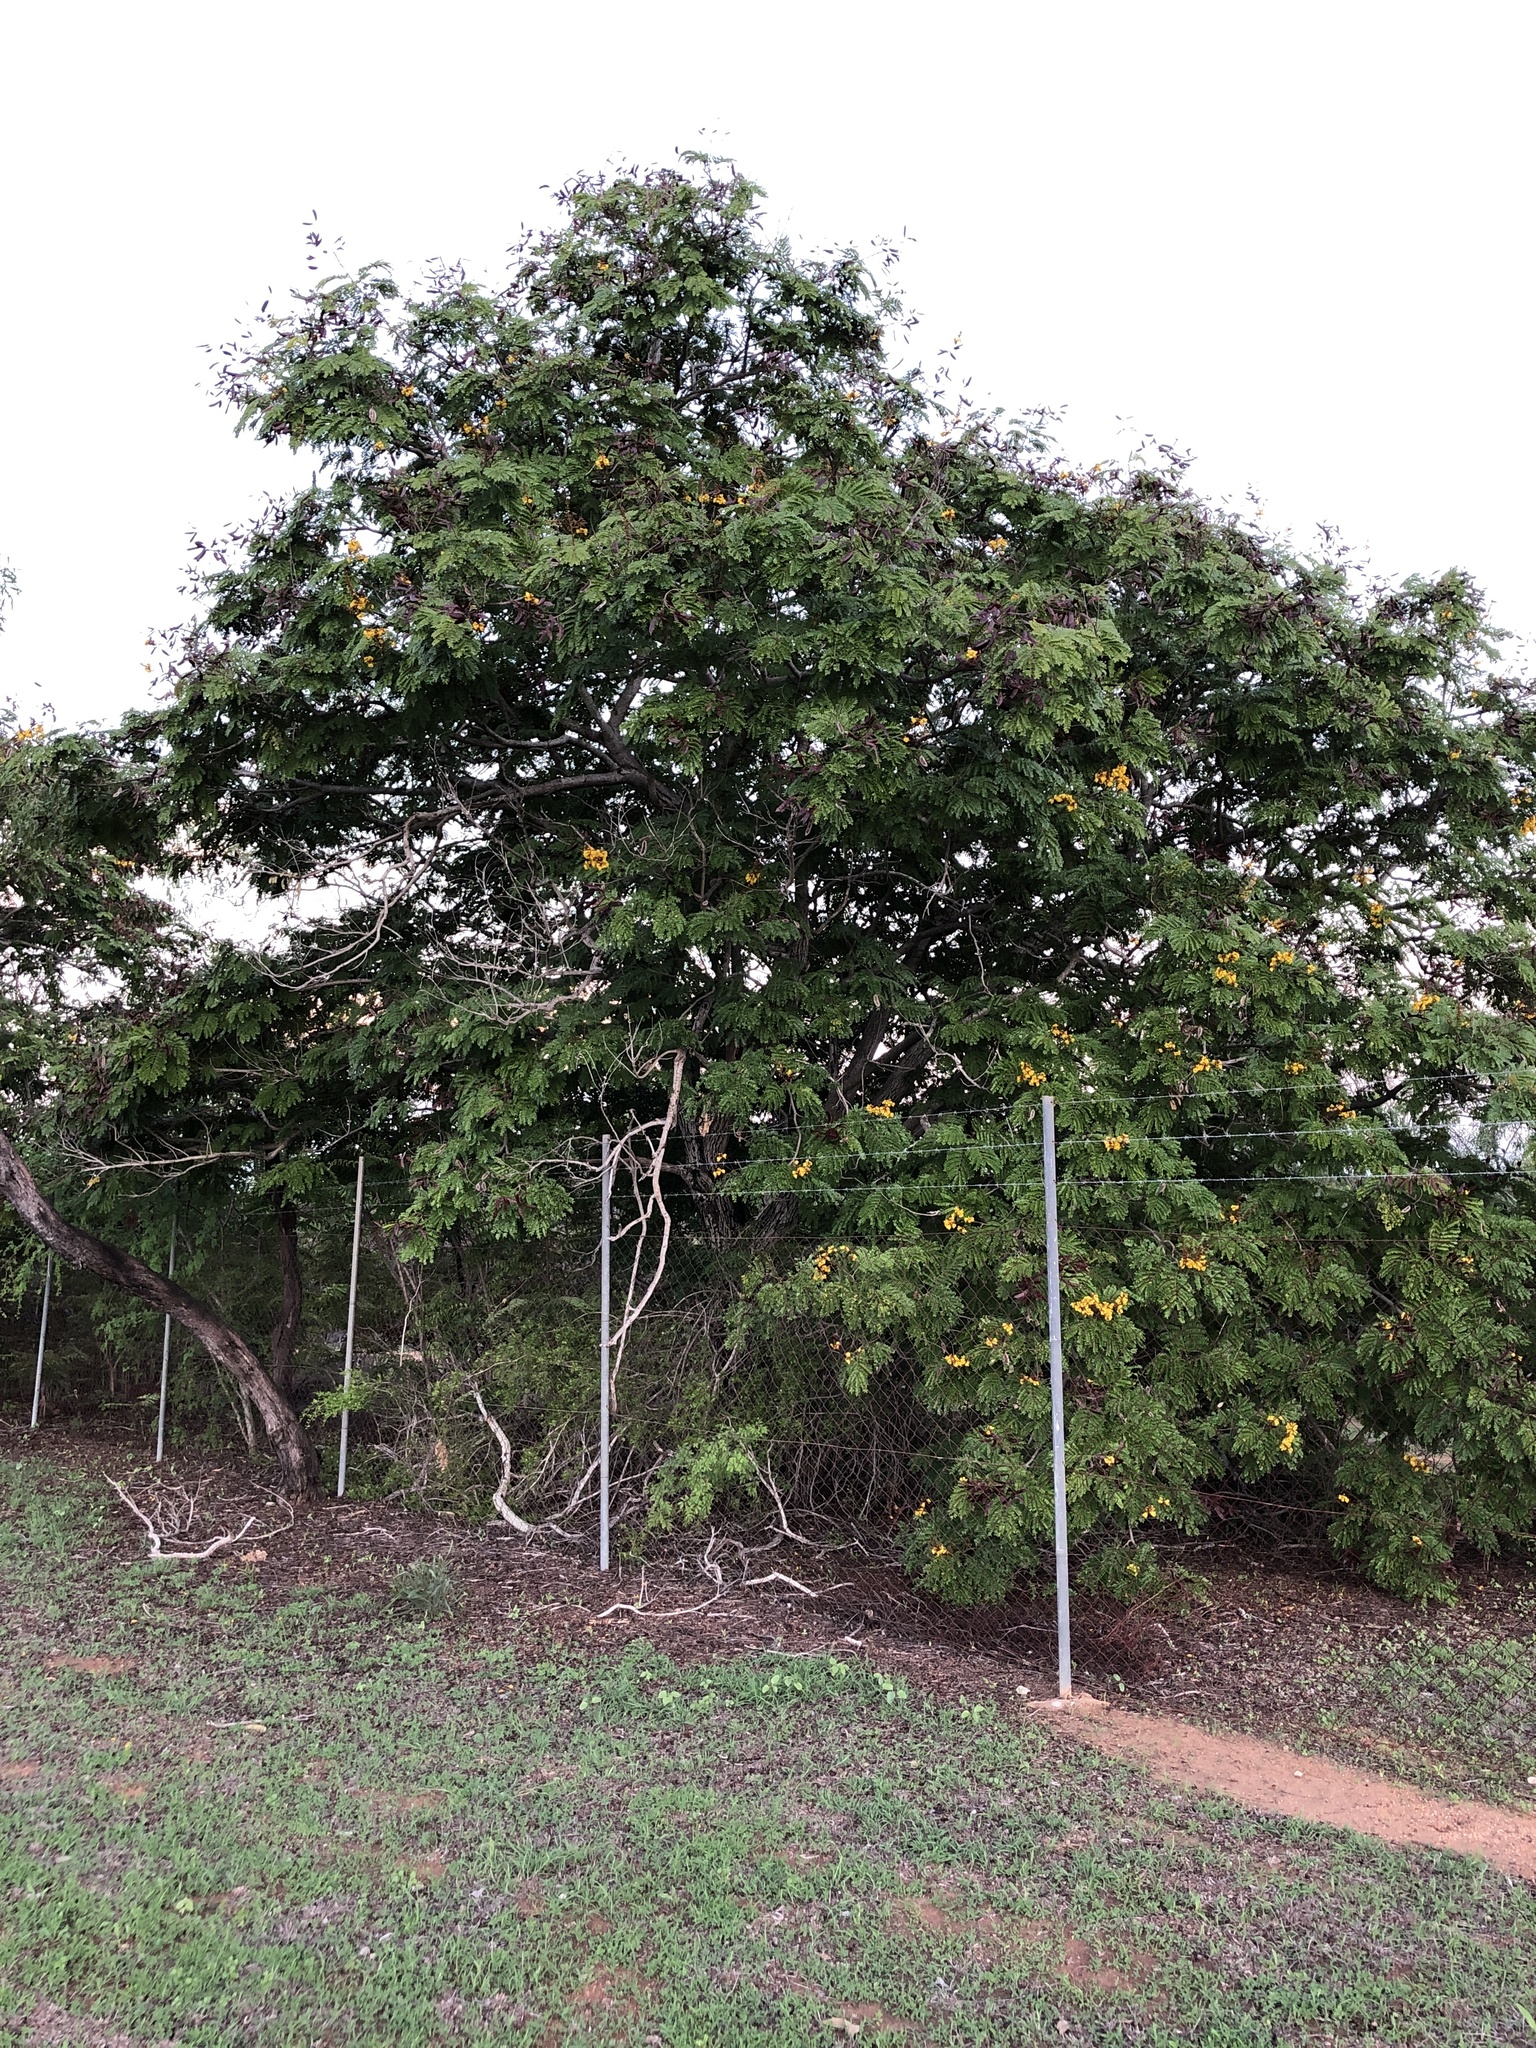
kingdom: Plantae
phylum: Tracheophyta
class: Magnoliopsida
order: Fabales
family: Fabaceae
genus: Peltophorum
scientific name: Peltophorum pterocarpum
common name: Yellow flame
